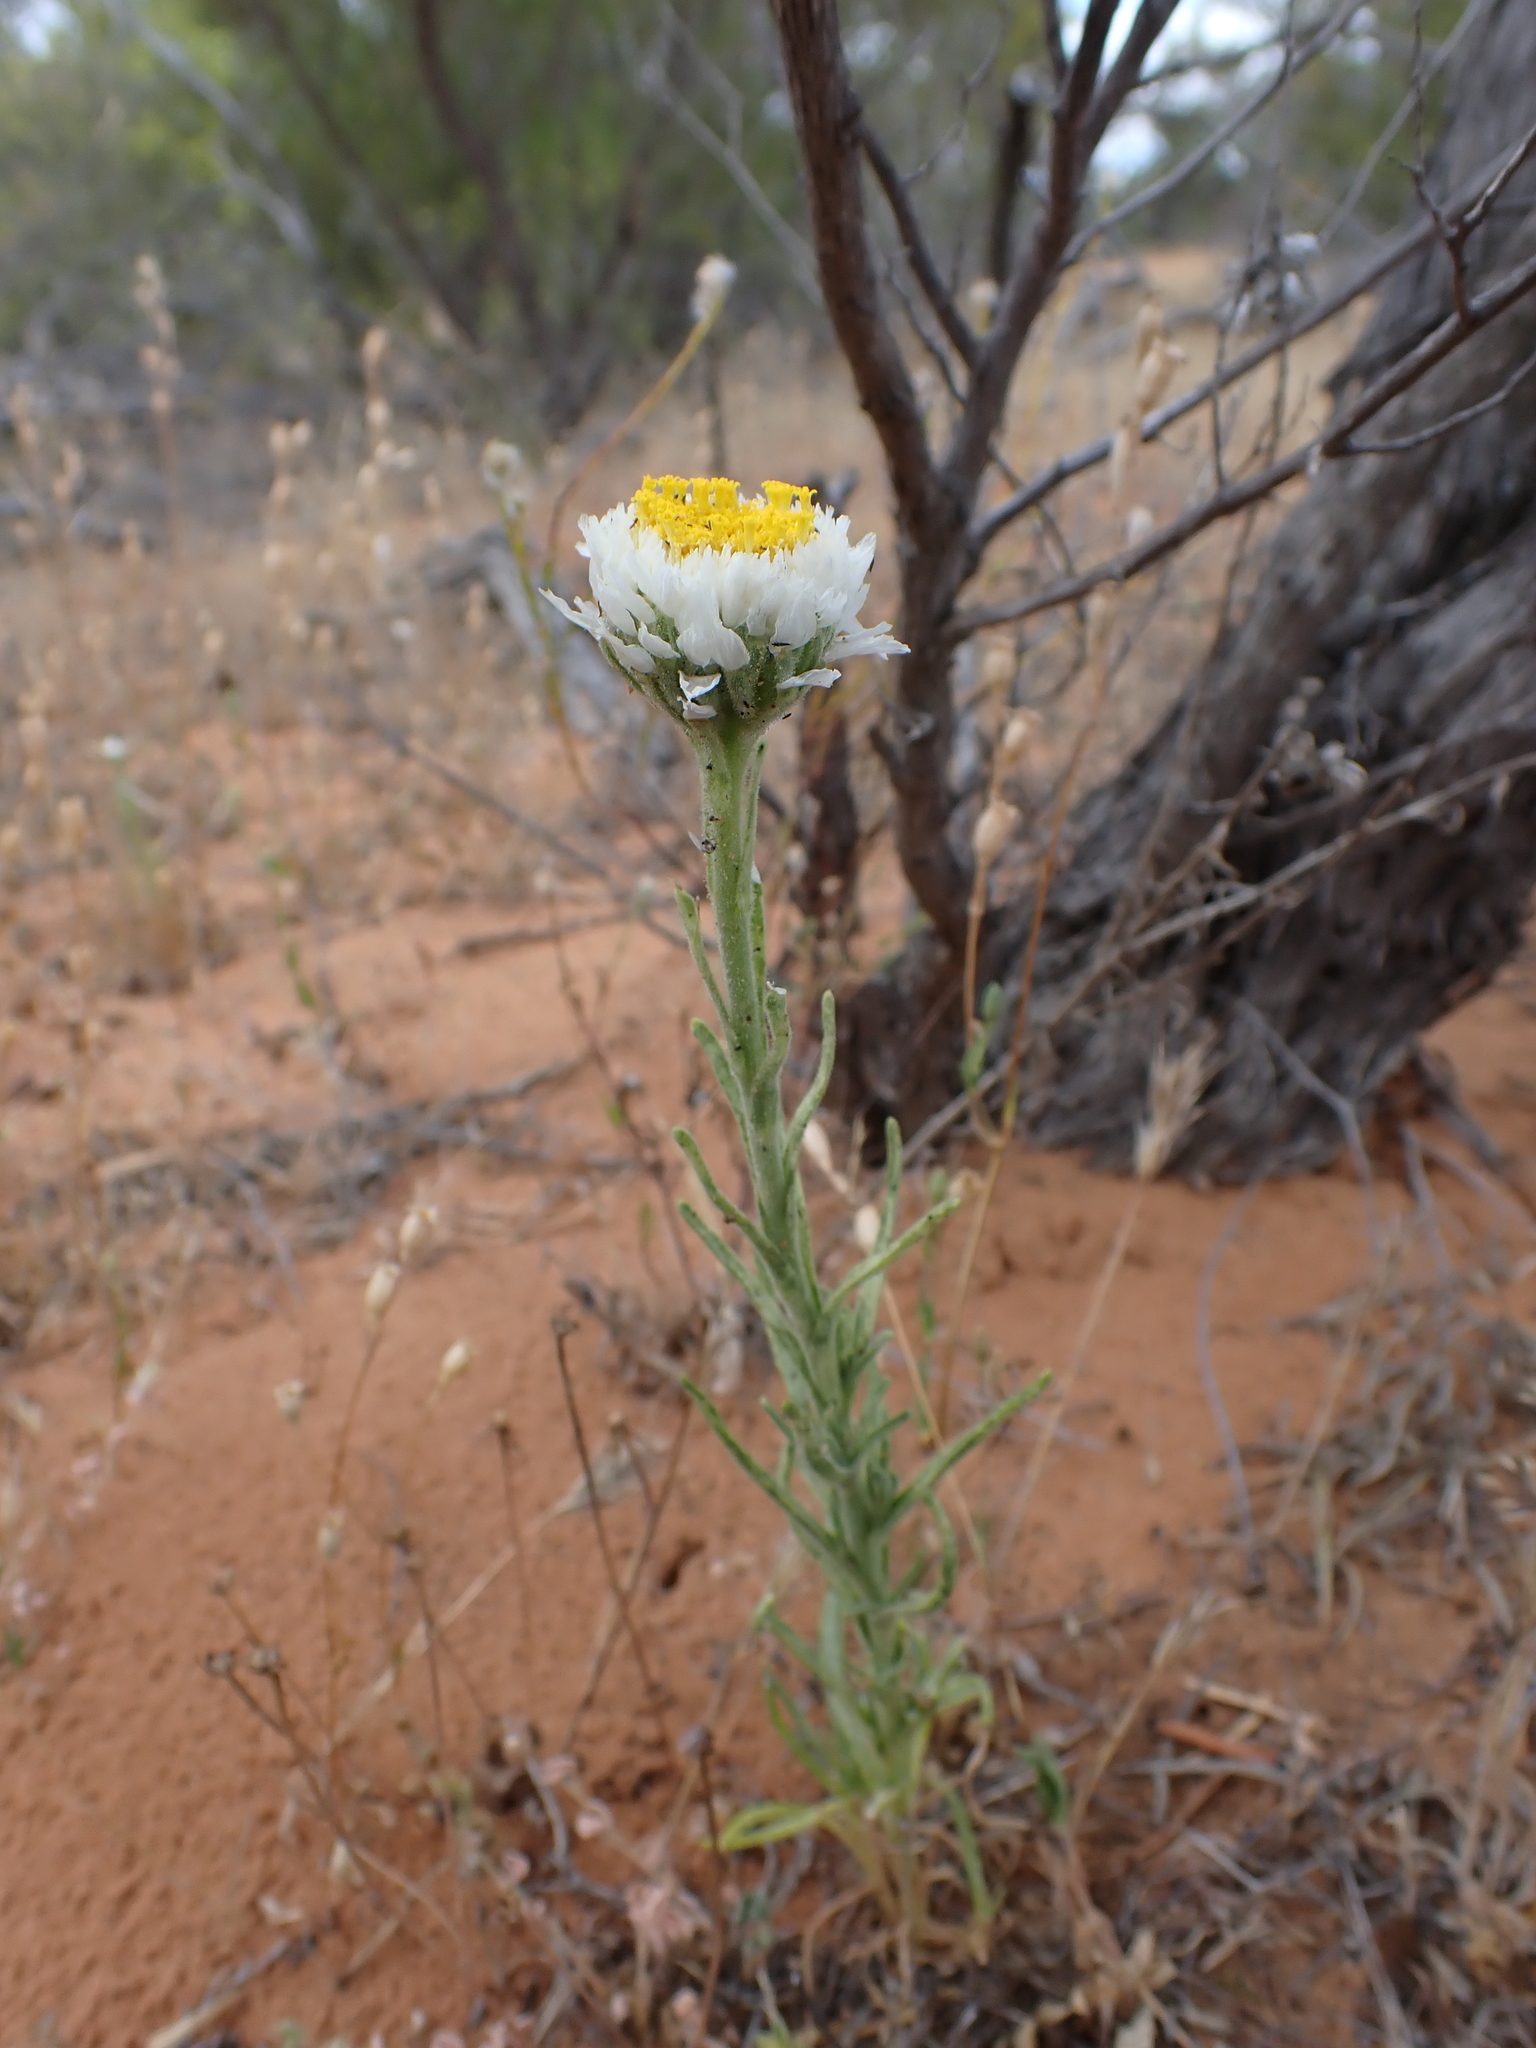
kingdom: Plantae
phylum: Tracheophyta
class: Magnoliopsida
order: Asterales
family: Asteraceae
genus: Polycalymma
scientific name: Polycalymma stuartii
